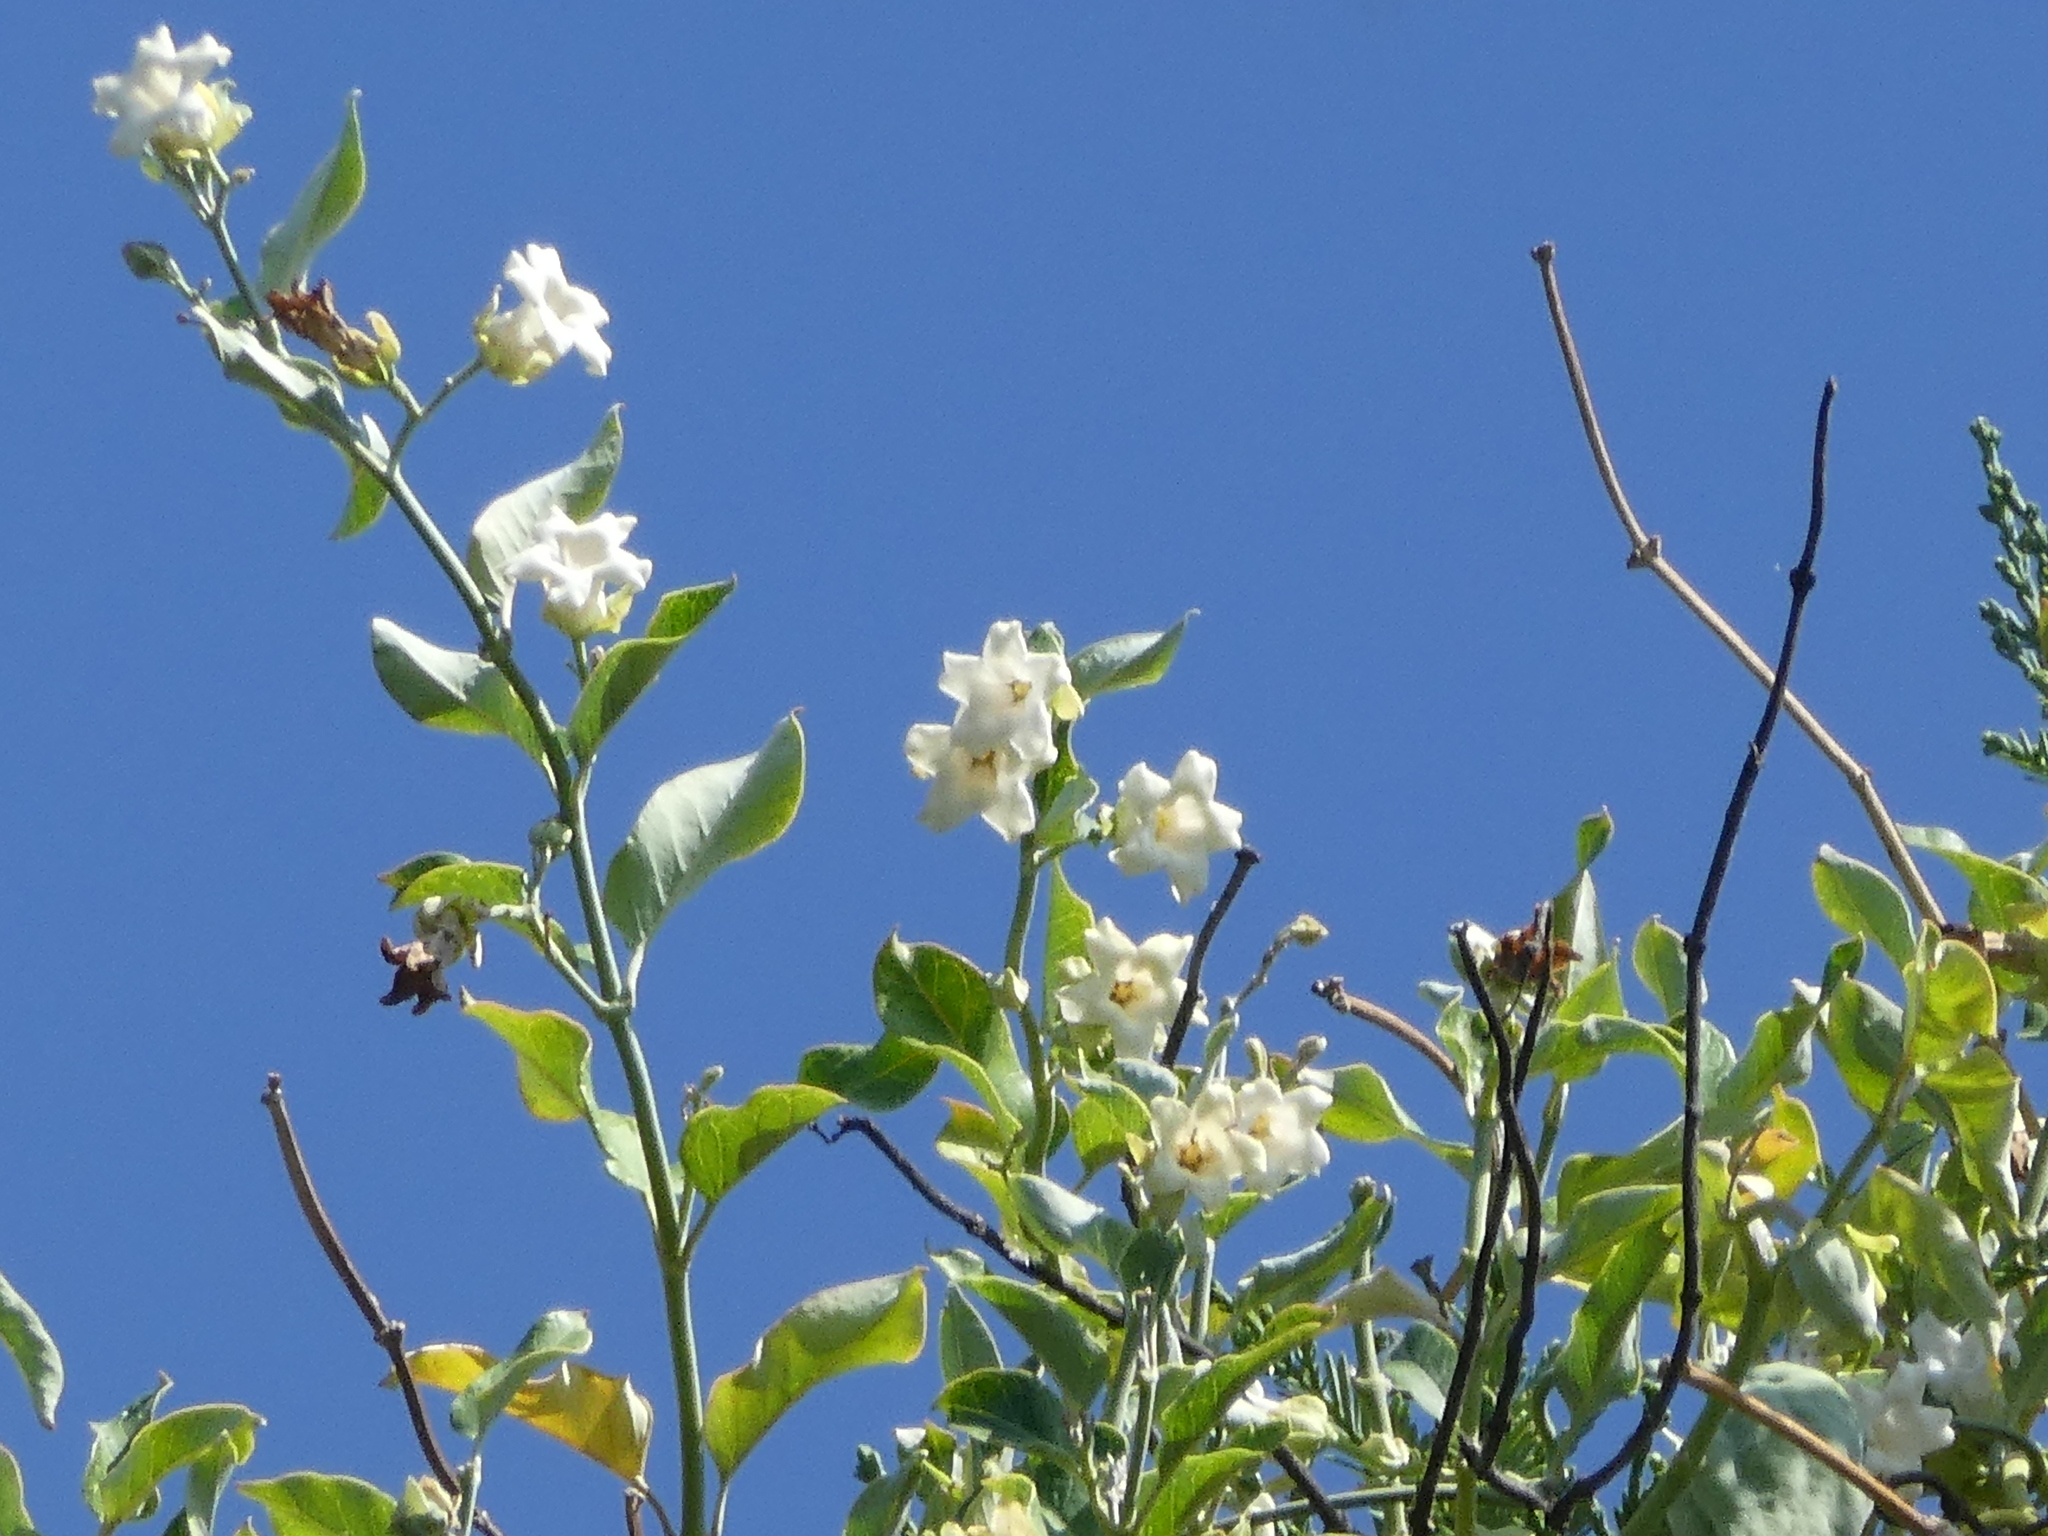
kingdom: Plantae
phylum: Tracheophyta
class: Magnoliopsida
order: Gentianales
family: Apocynaceae
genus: Araujia
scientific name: Araujia sericifera
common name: White bladderflower
